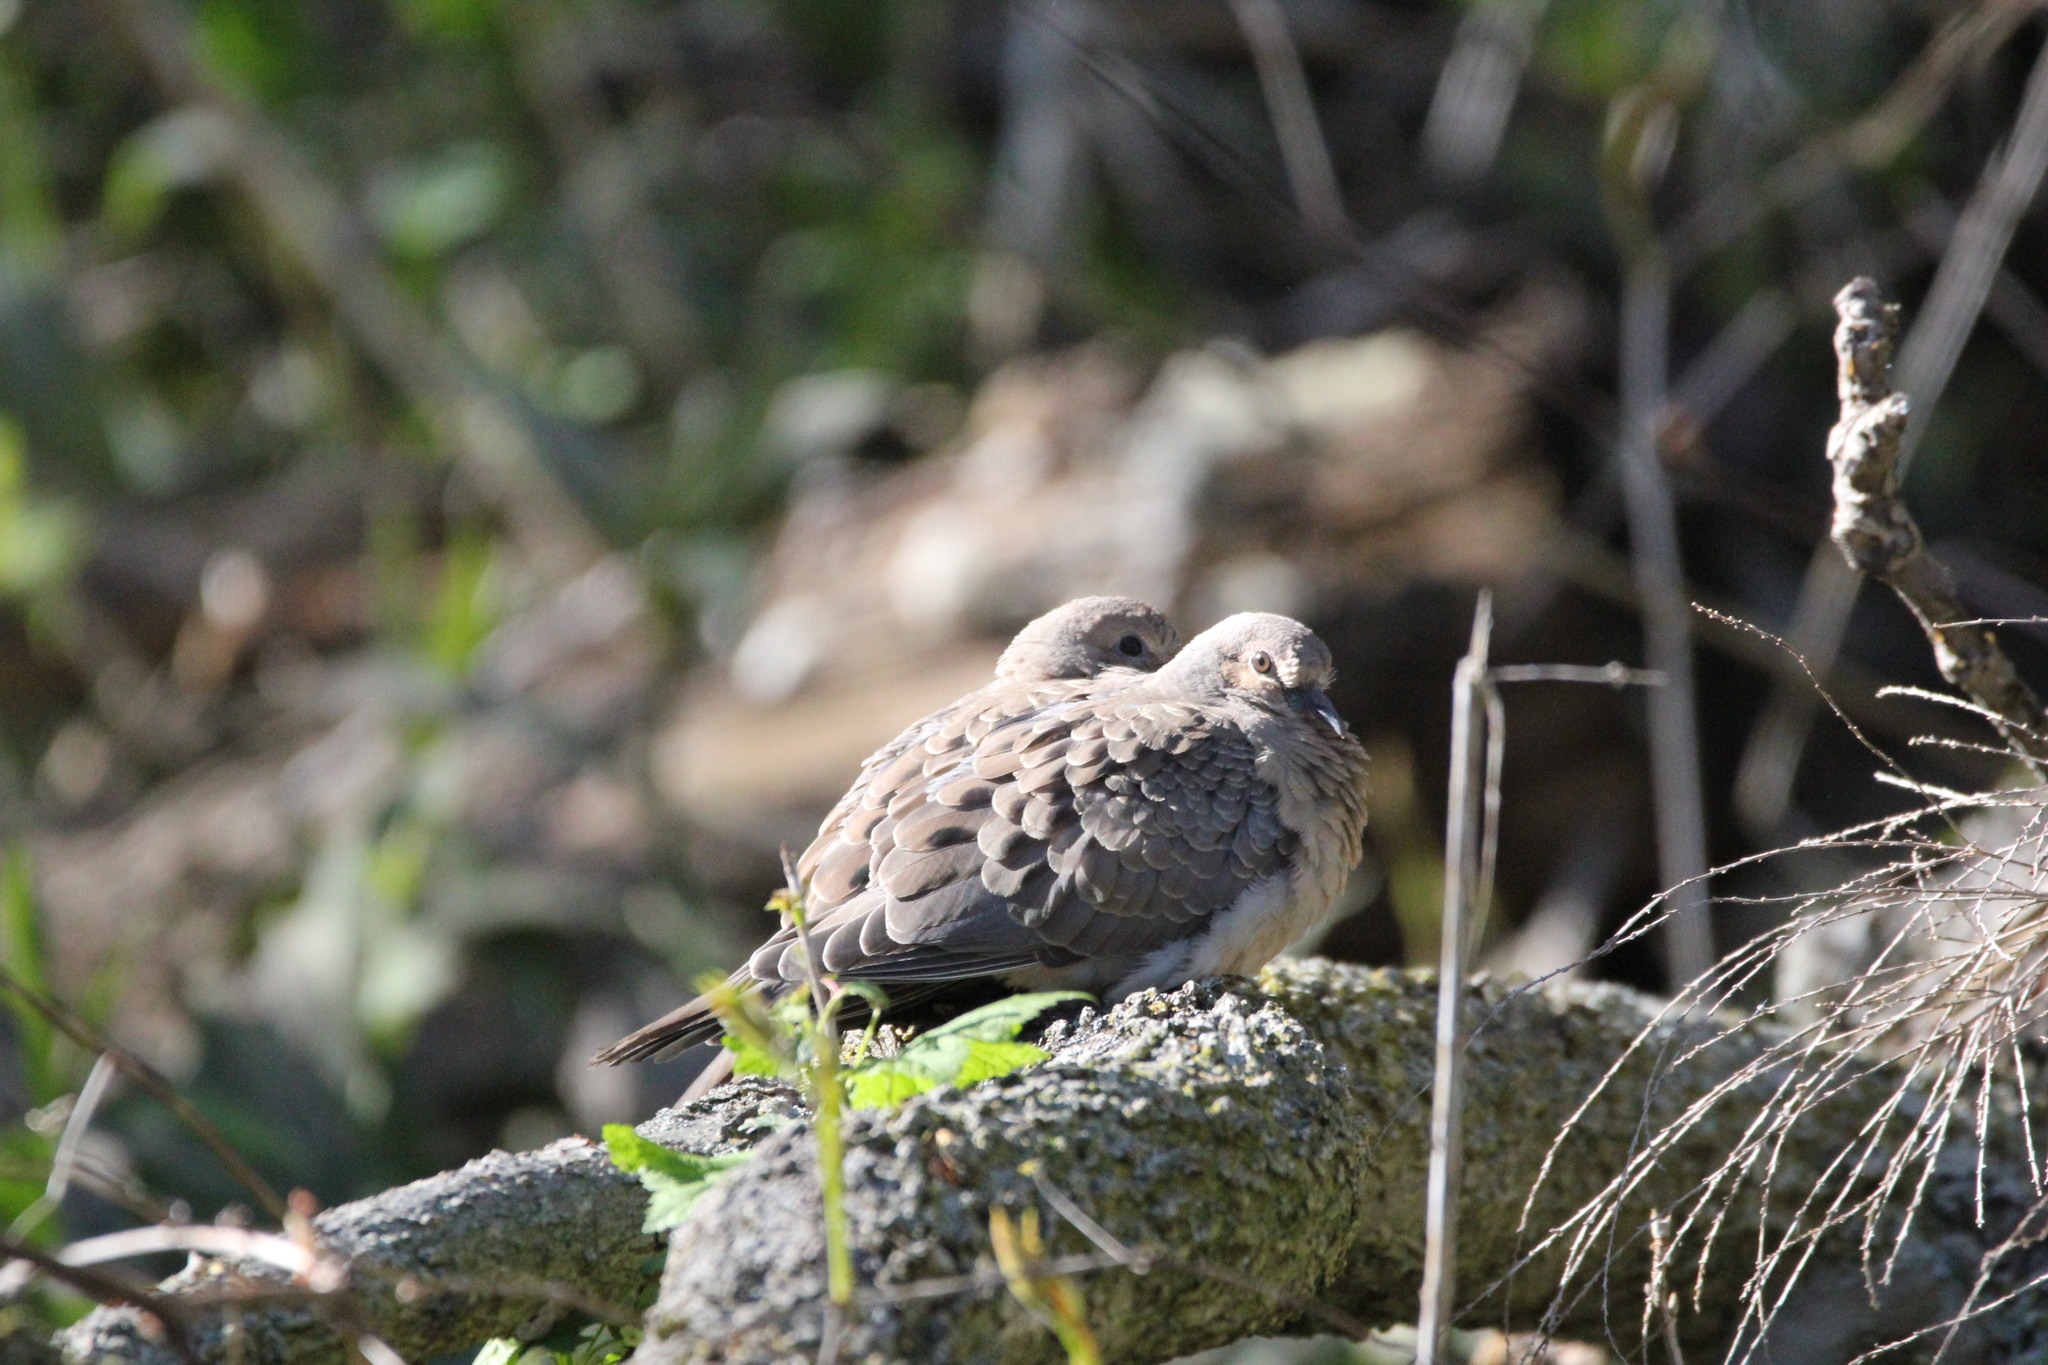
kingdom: Animalia
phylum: Chordata
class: Aves
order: Columbiformes
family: Columbidae
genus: Zenaida
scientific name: Zenaida macroura
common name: Mourning dove
